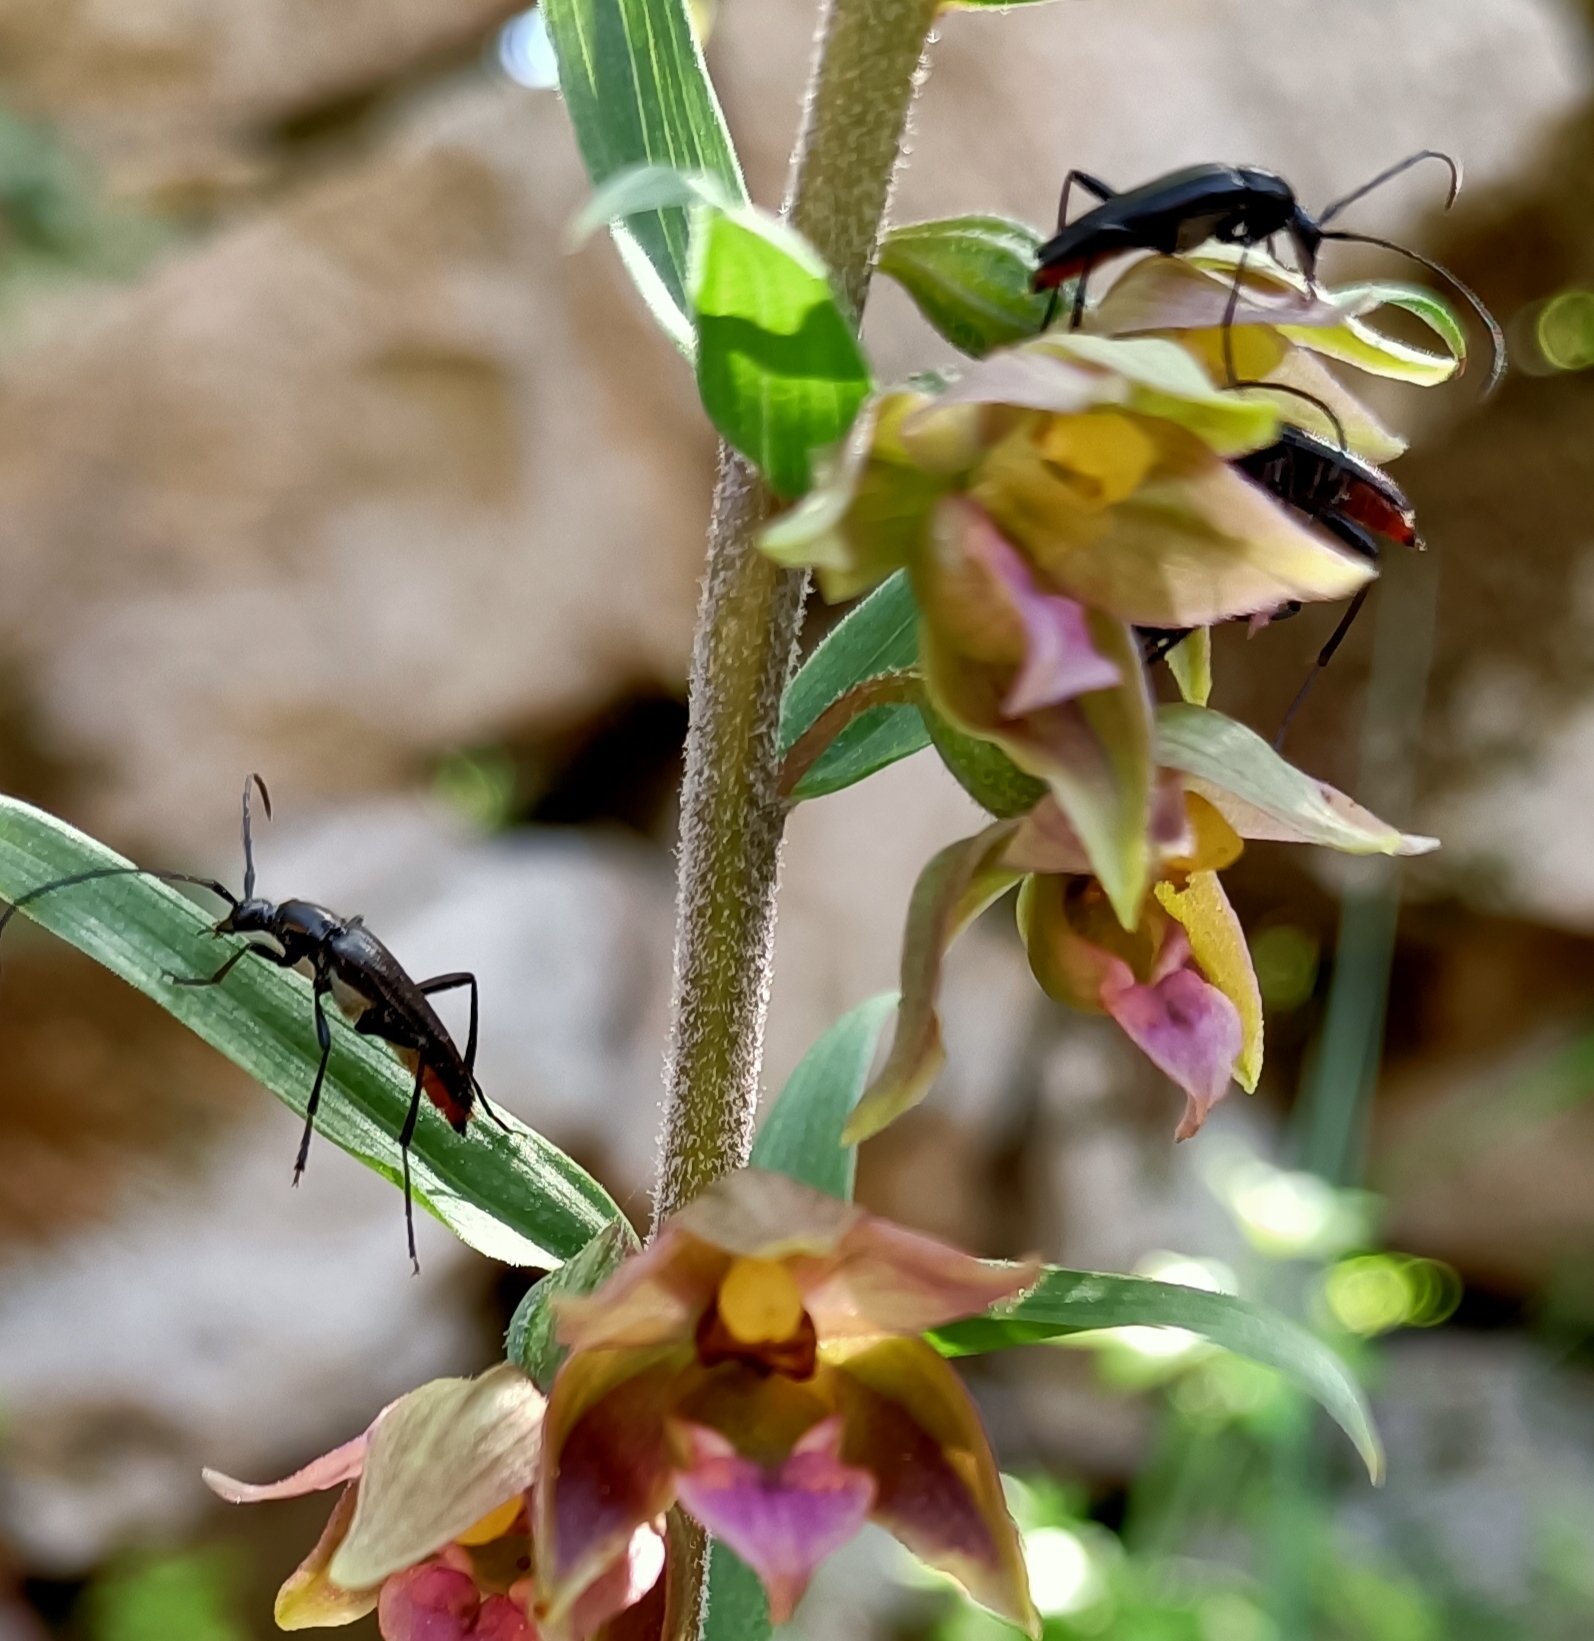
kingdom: Animalia
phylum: Arthropoda
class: Insecta
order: Coleoptera
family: Cerambycidae
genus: Stenurella
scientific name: Stenurella nigra
